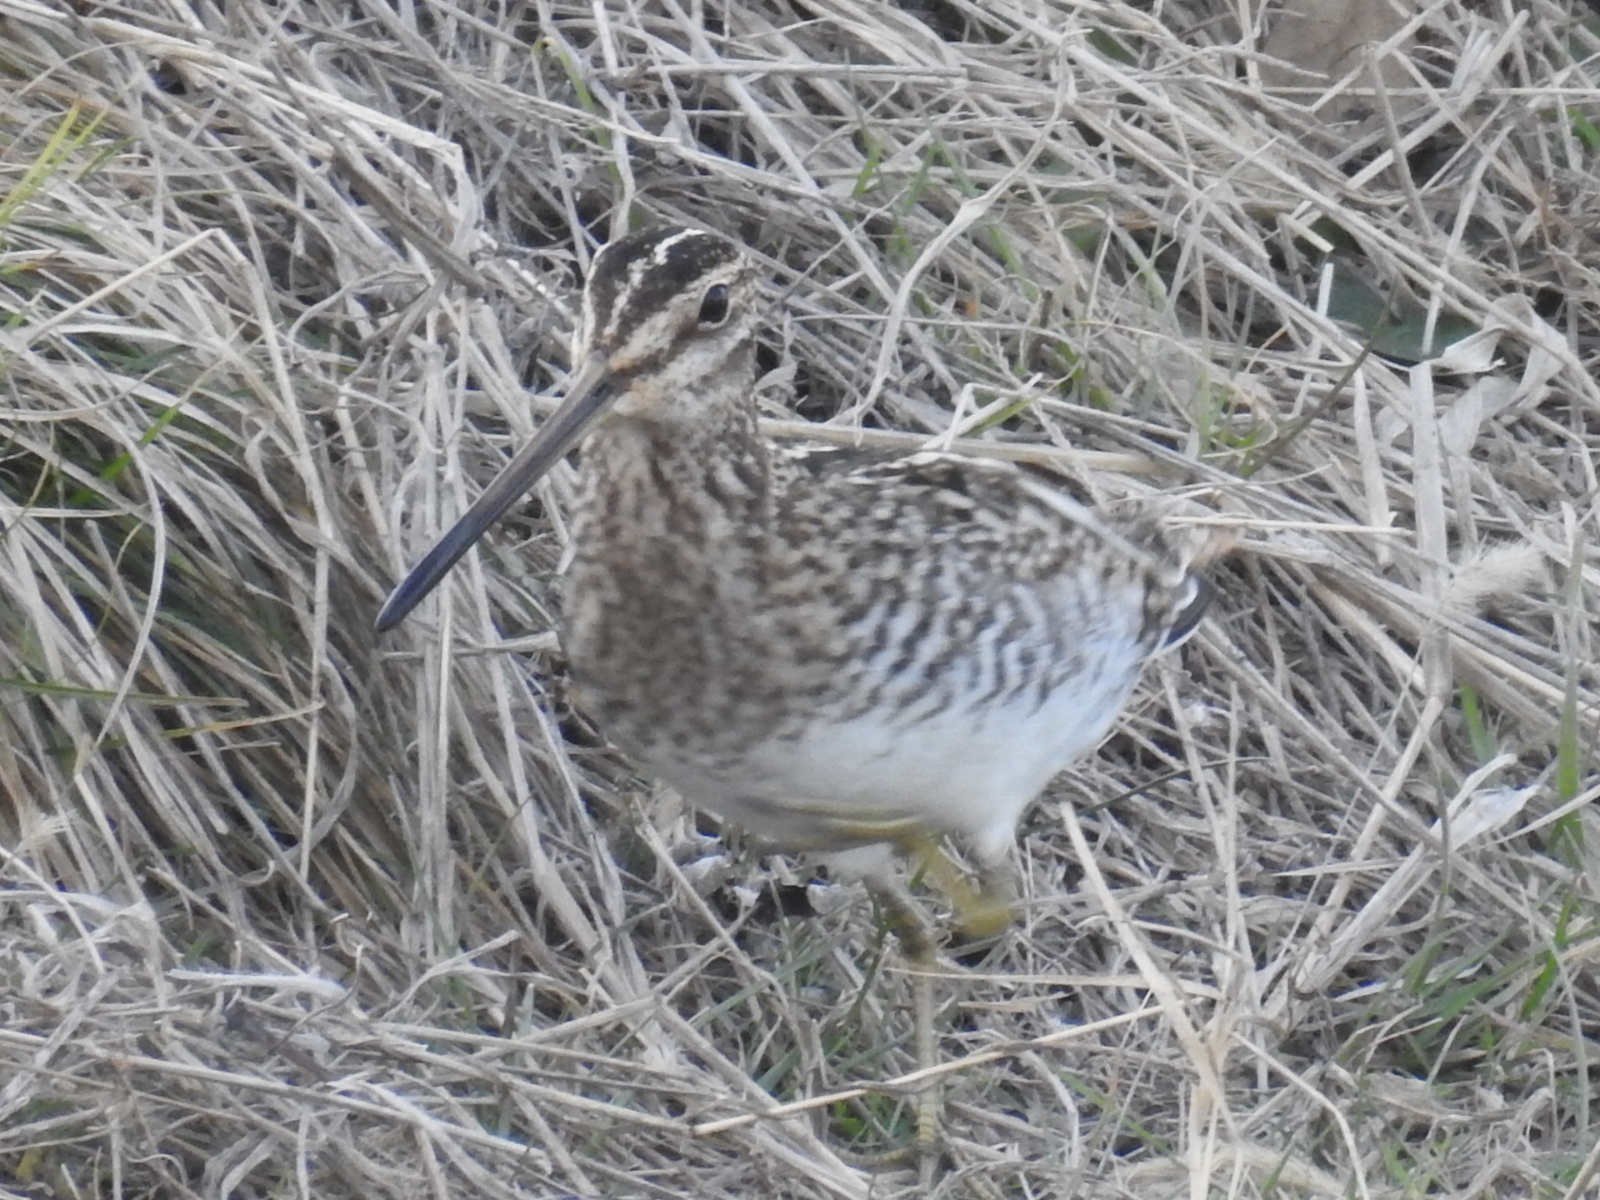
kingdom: Animalia
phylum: Chordata
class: Aves
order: Charadriiformes
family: Scolopacidae
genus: Gallinago
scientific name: Gallinago delicata
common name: Wilson's snipe
